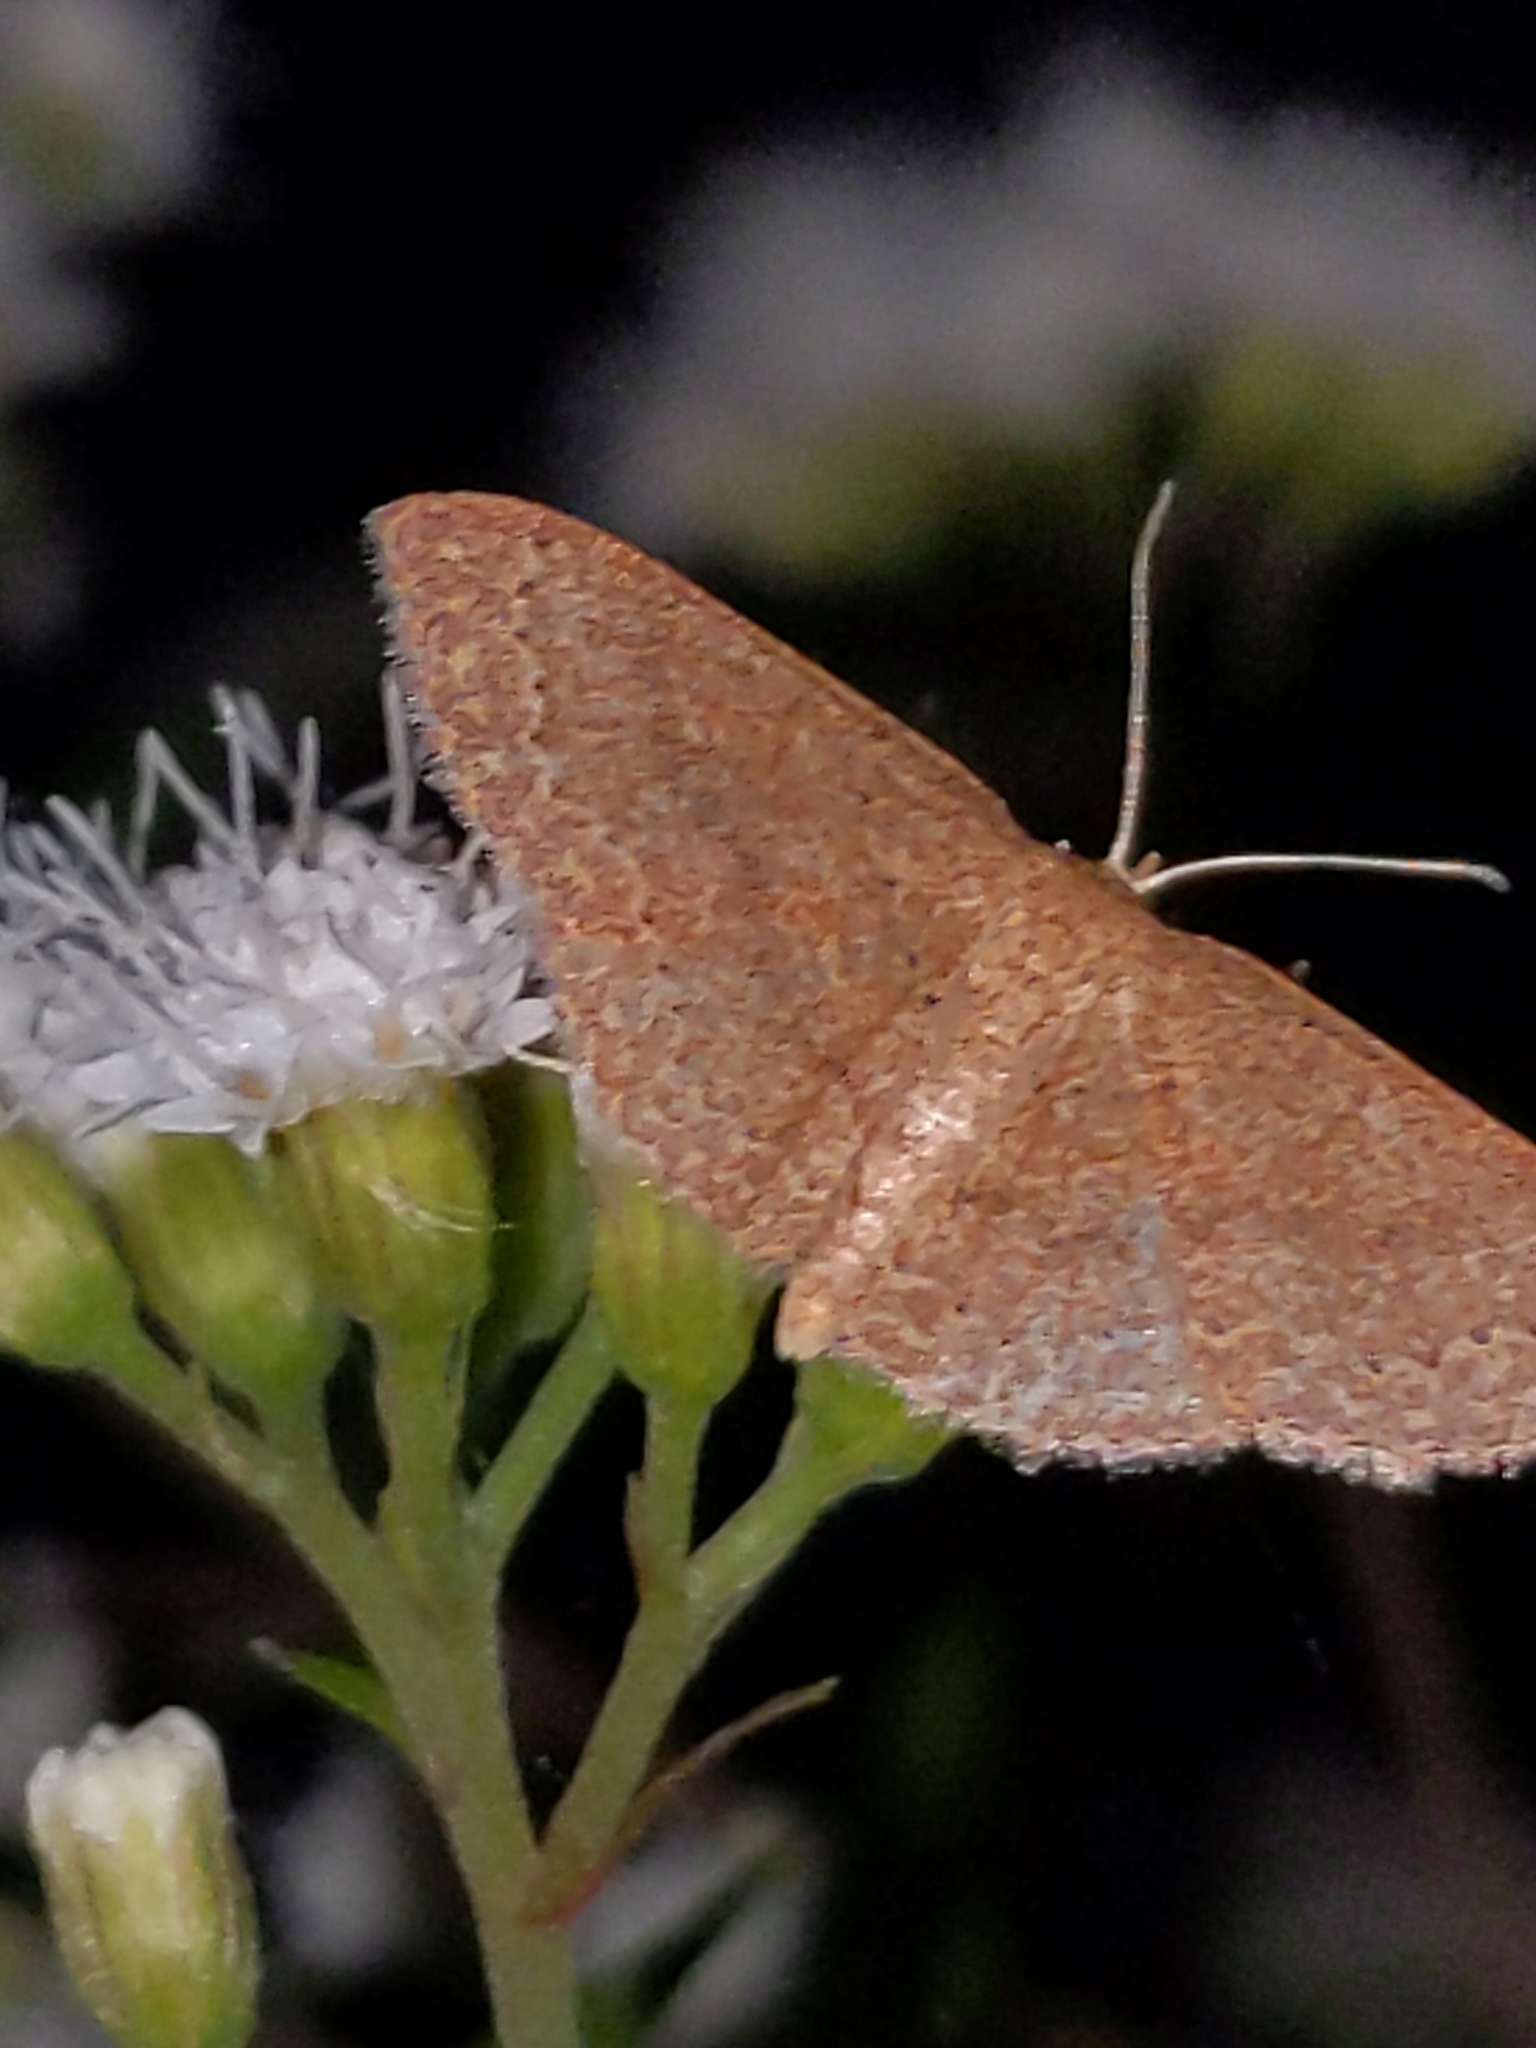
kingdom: Animalia
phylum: Arthropoda
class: Insecta
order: Lepidoptera
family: Geometridae
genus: Pleuroprucha
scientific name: Pleuroprucha insulsaria
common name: Common tan wave
